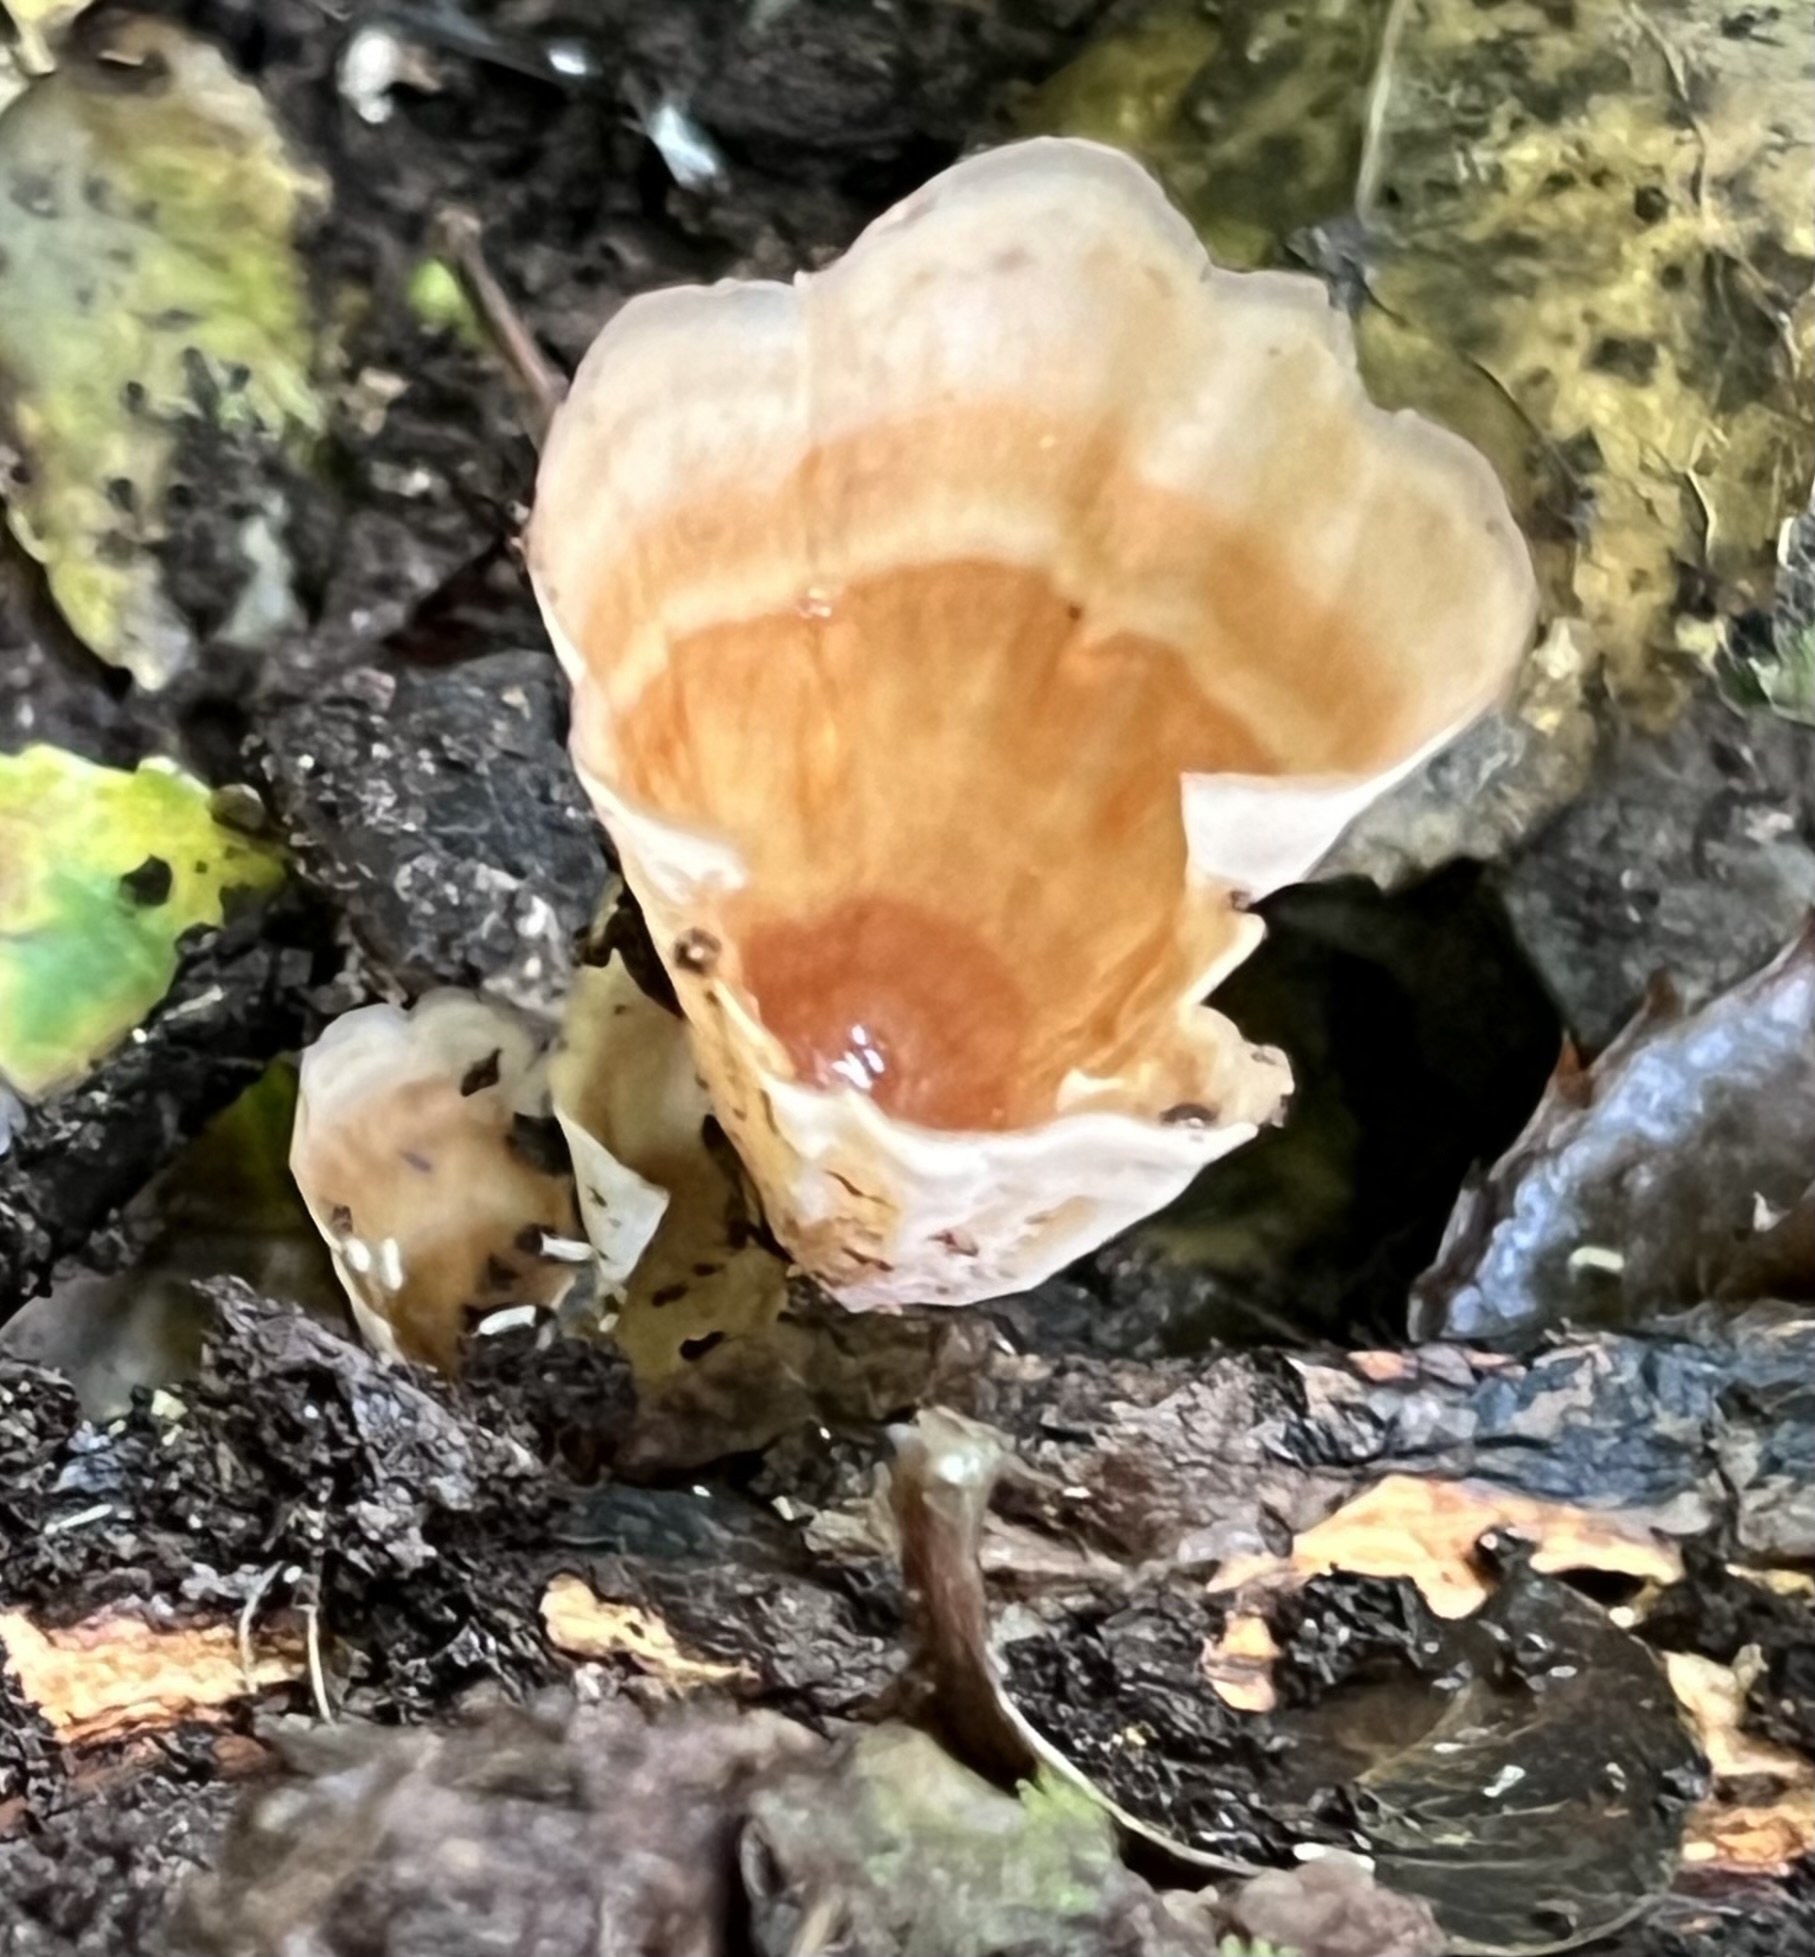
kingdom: Fungi
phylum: Basidiomycota
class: Agaricomycetes
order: Polyporales
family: Podoscyphaceae
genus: Podoscypha
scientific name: Podoscypha petalodes
